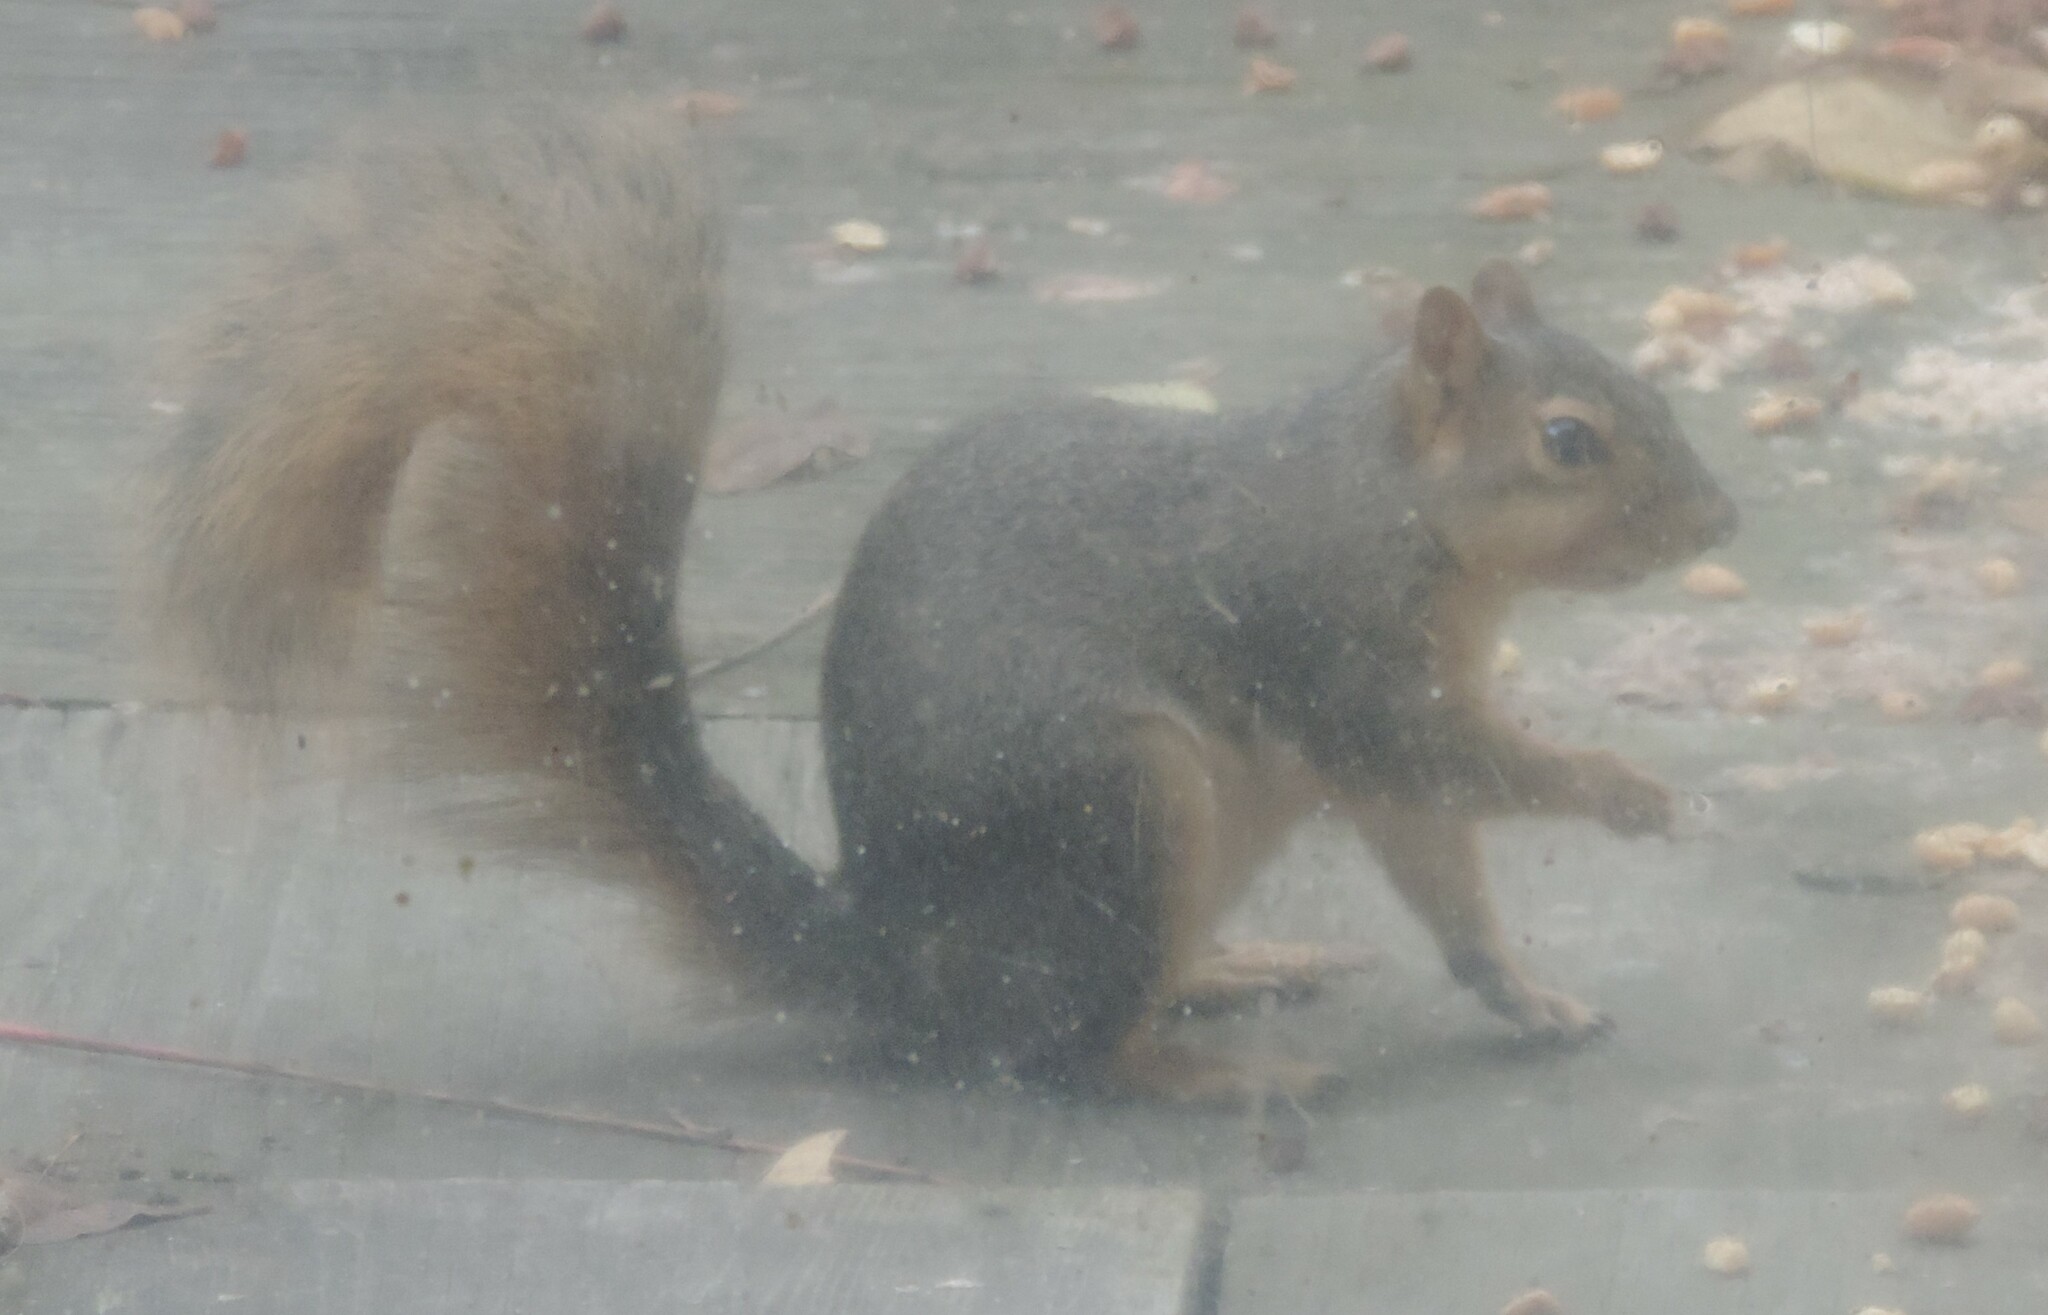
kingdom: Animalia
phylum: Chordata
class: Mammalia
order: Rodentia
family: Sciuridae
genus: Sciurus
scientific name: Sciurus niger
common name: Fox squirrel
